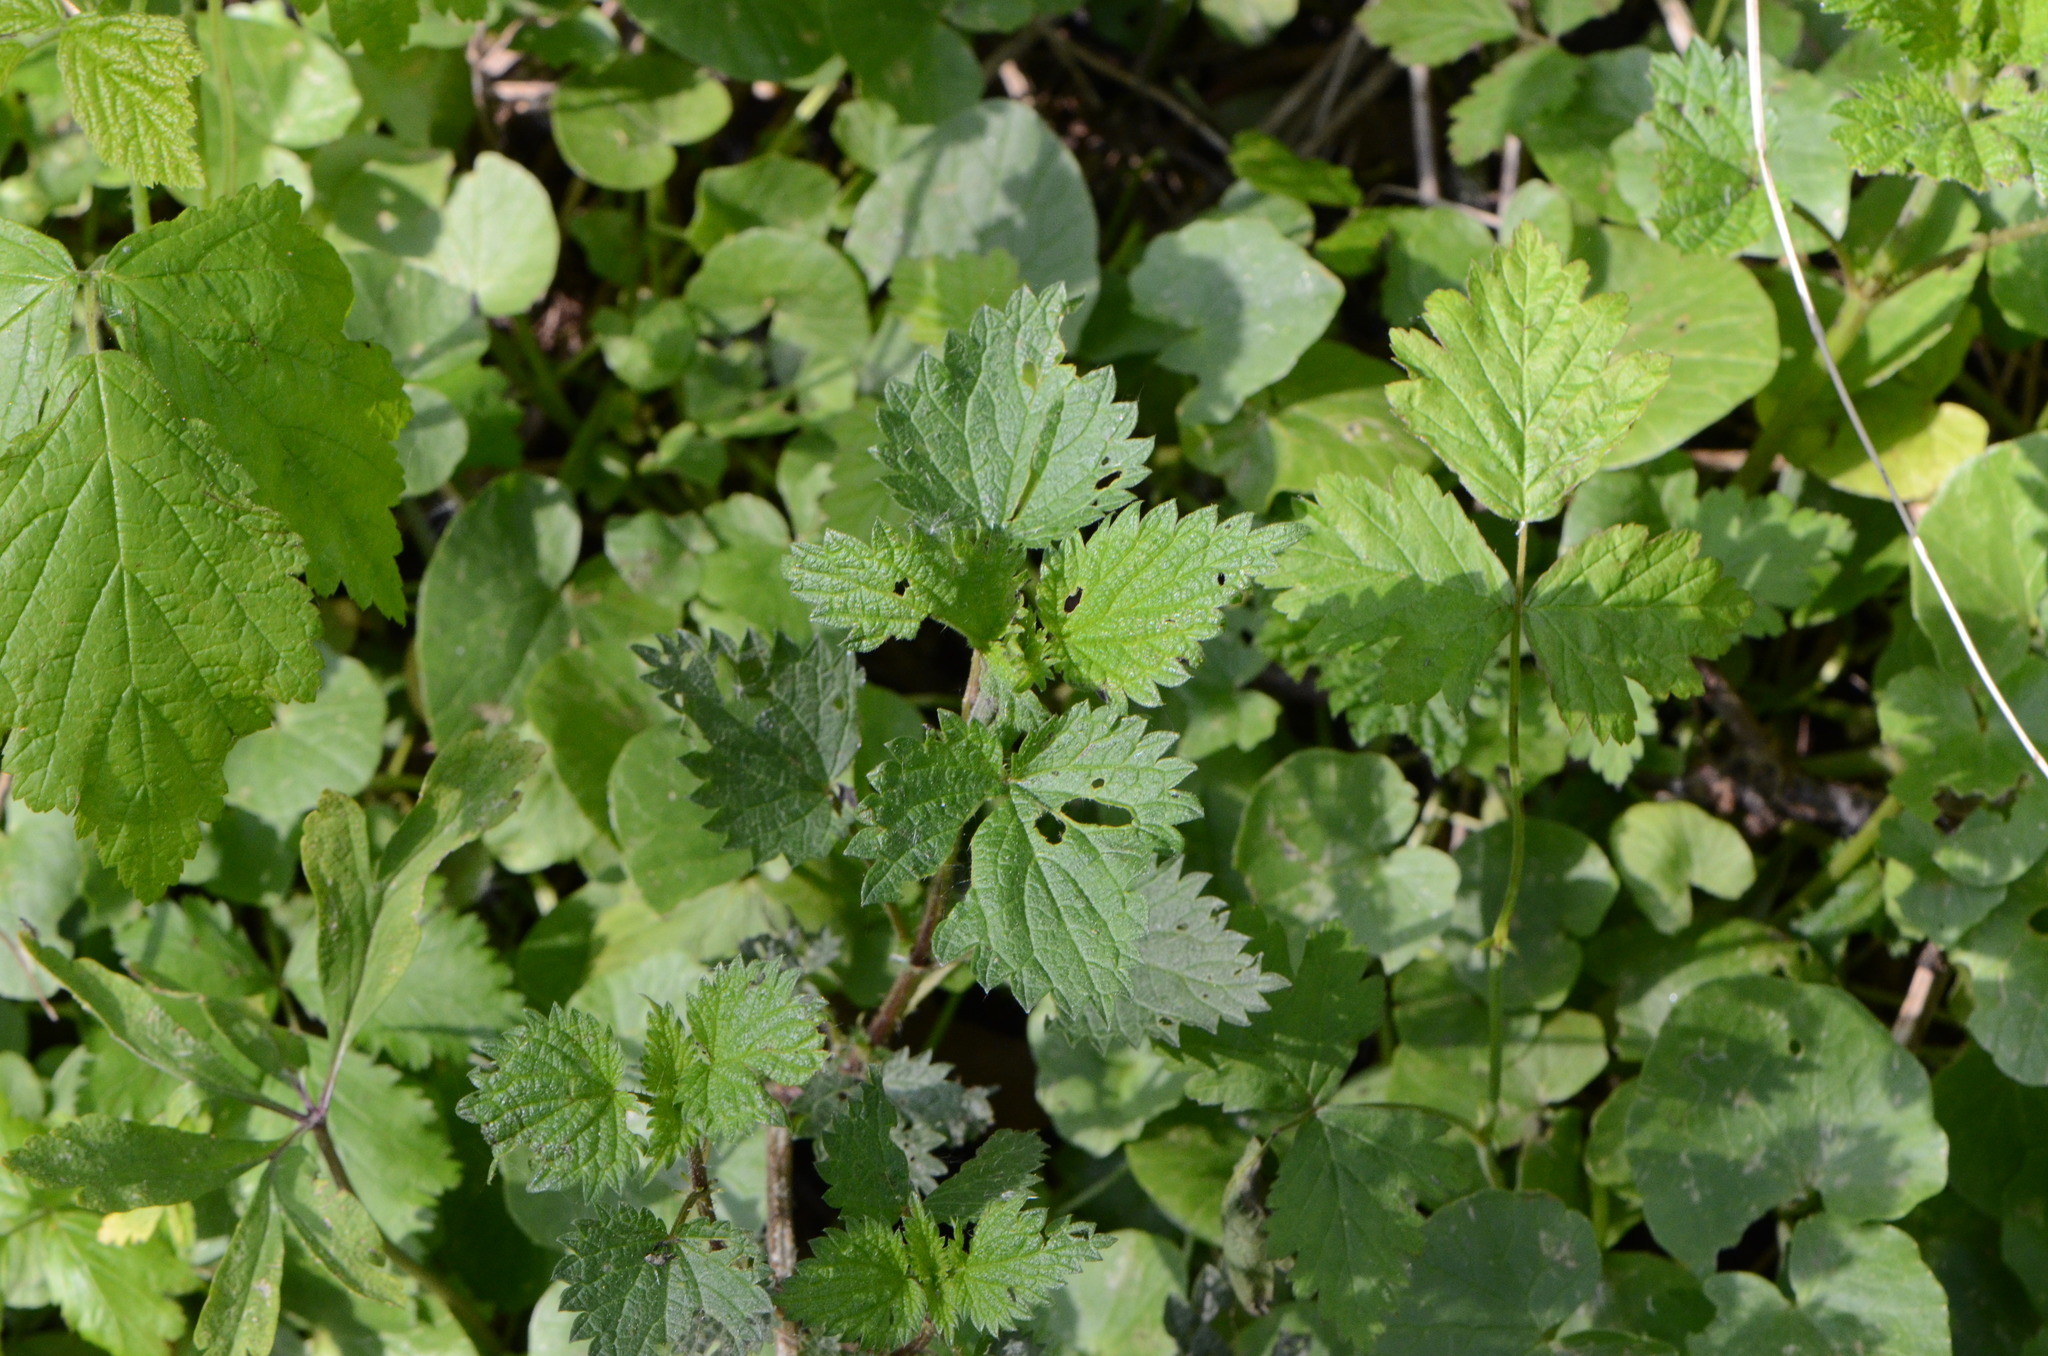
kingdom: Plantae
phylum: Tracheophyta
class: Magnoliopsida
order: Rosales
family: Urticaceae
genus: Urtica
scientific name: Urtica dioica
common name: Common nettle
